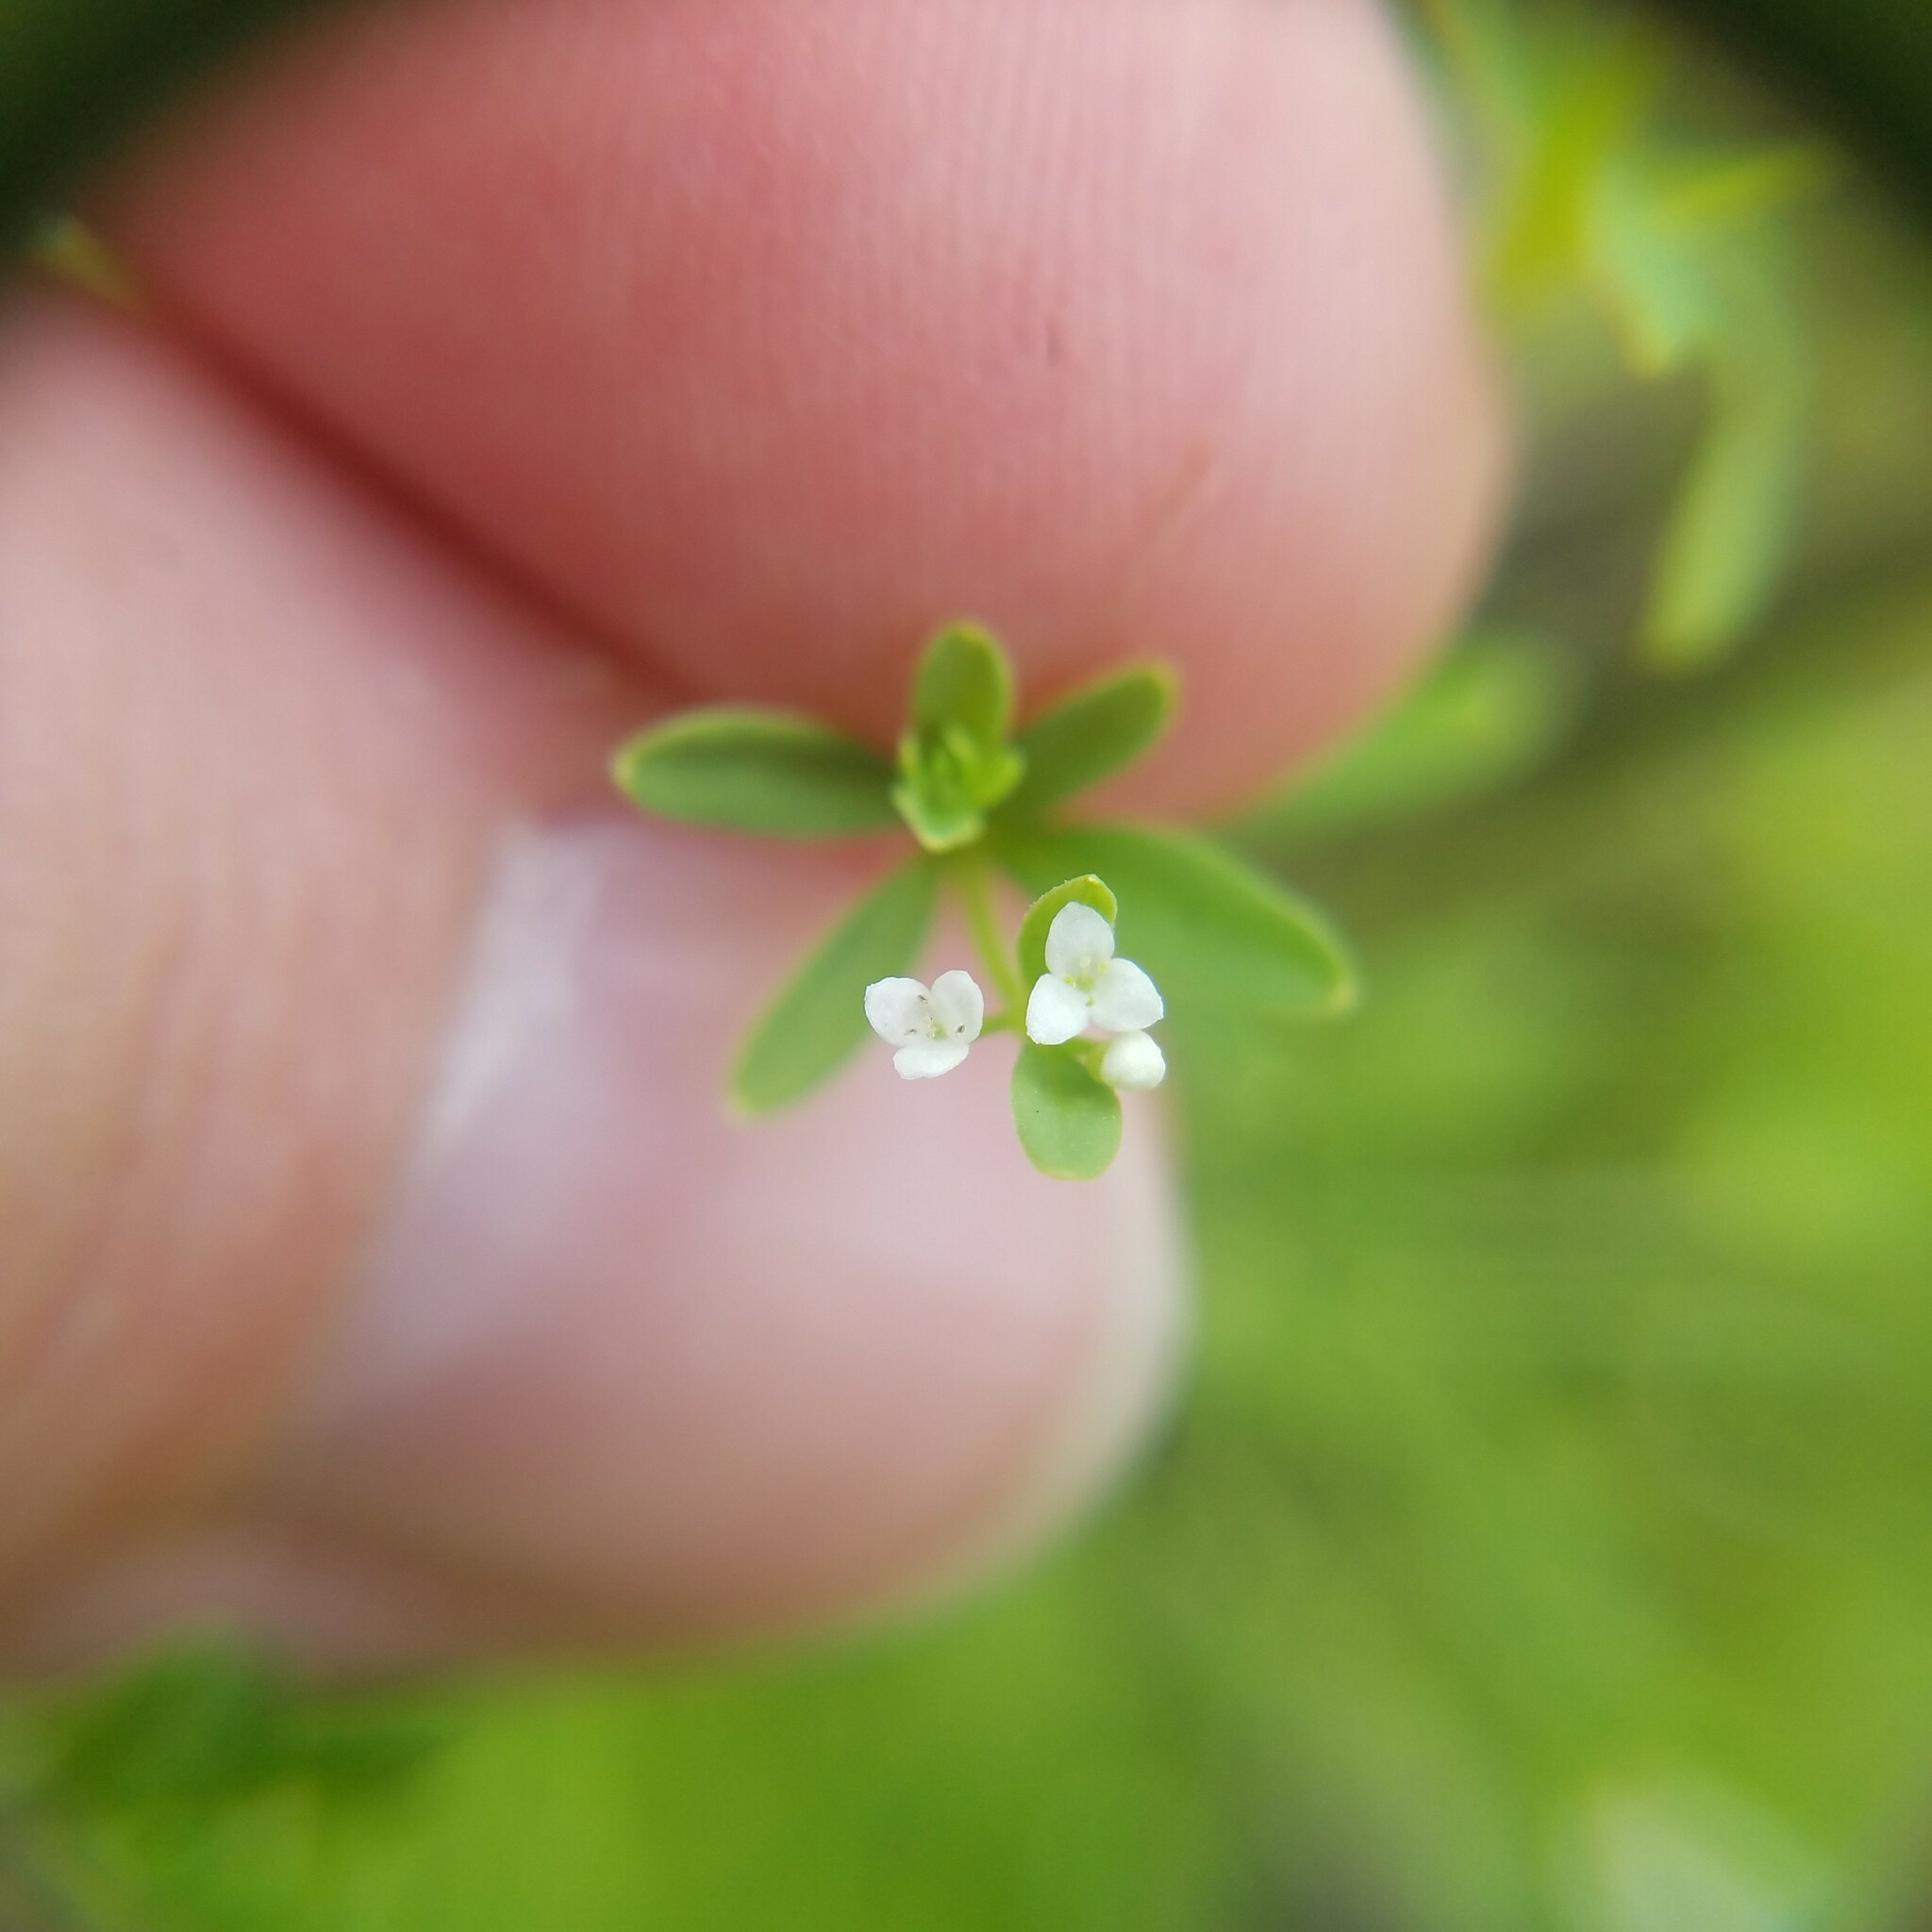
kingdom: Plantae
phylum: Tracheophyta
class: Magnoliopsida
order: Gentianales
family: Rubiaceae
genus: Galium
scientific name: Galium tinctorium
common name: Bedstraw
